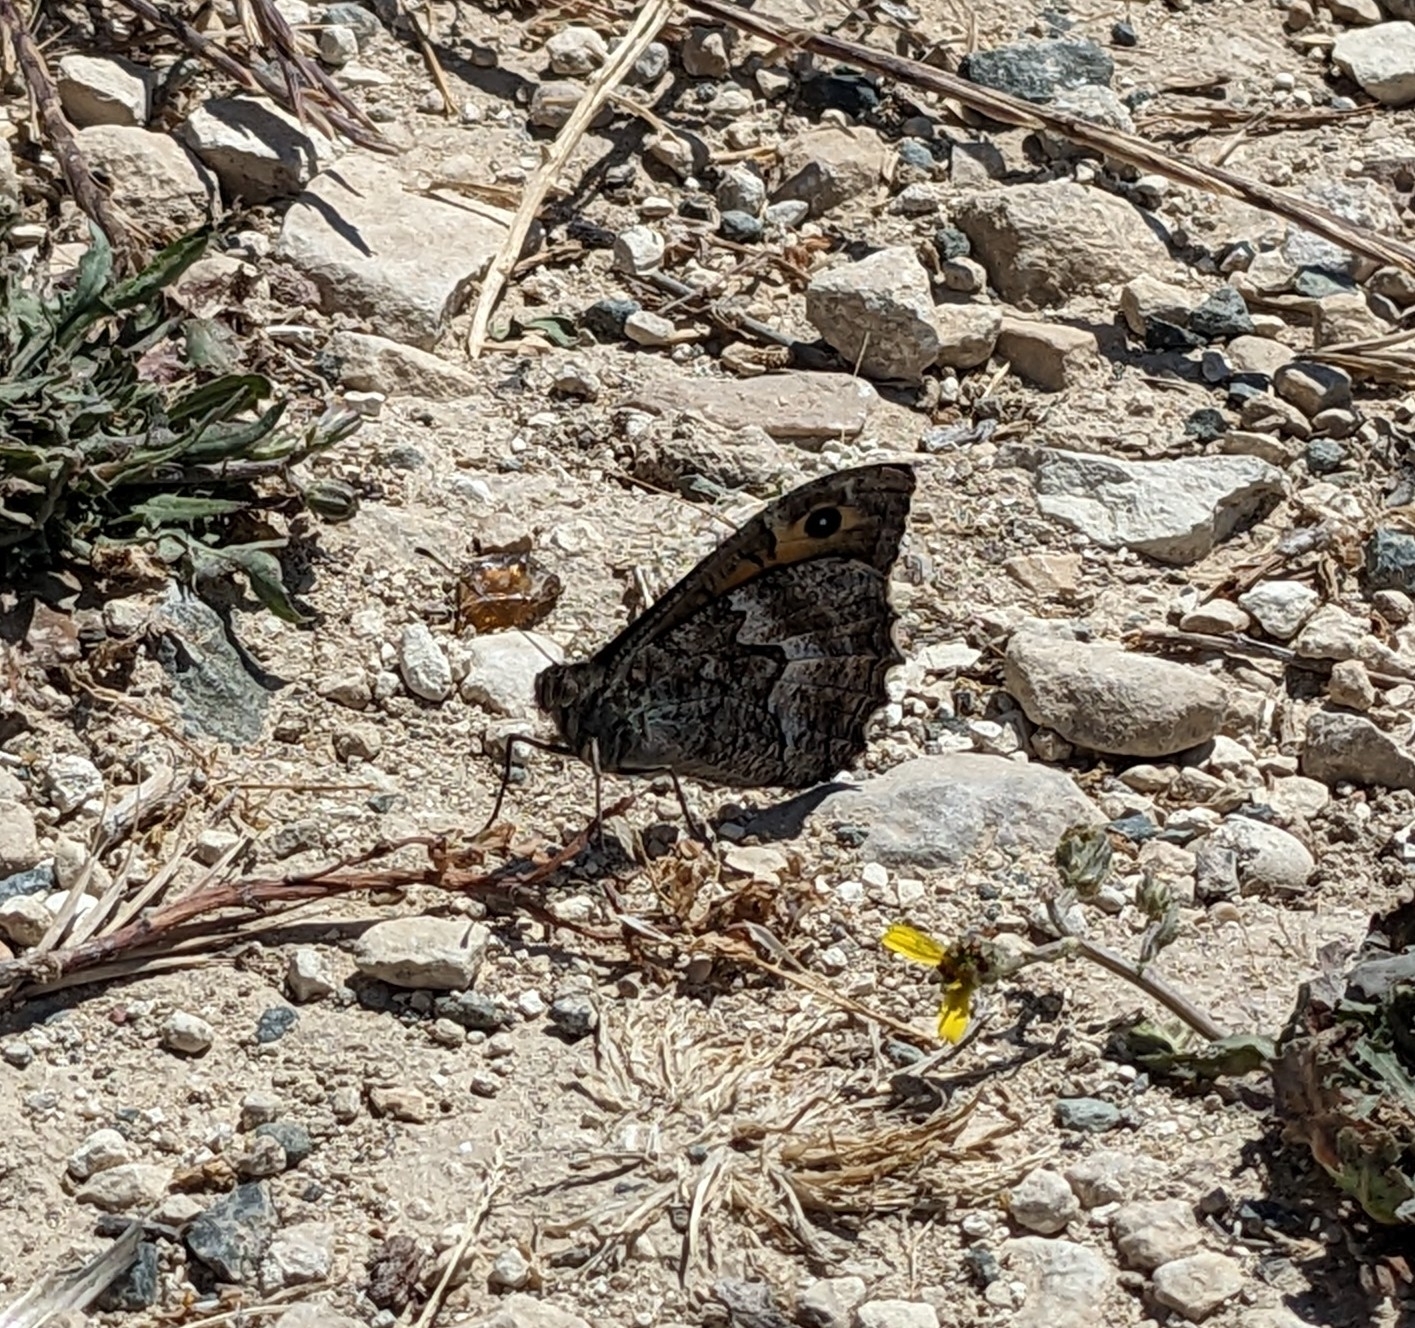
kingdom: Animalia
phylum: Arthropoda
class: Insecta
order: Lepidoptera
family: Nymphalidae
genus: Hipparchia
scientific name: Hipparchia cypriensis
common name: Cyprus grayling
